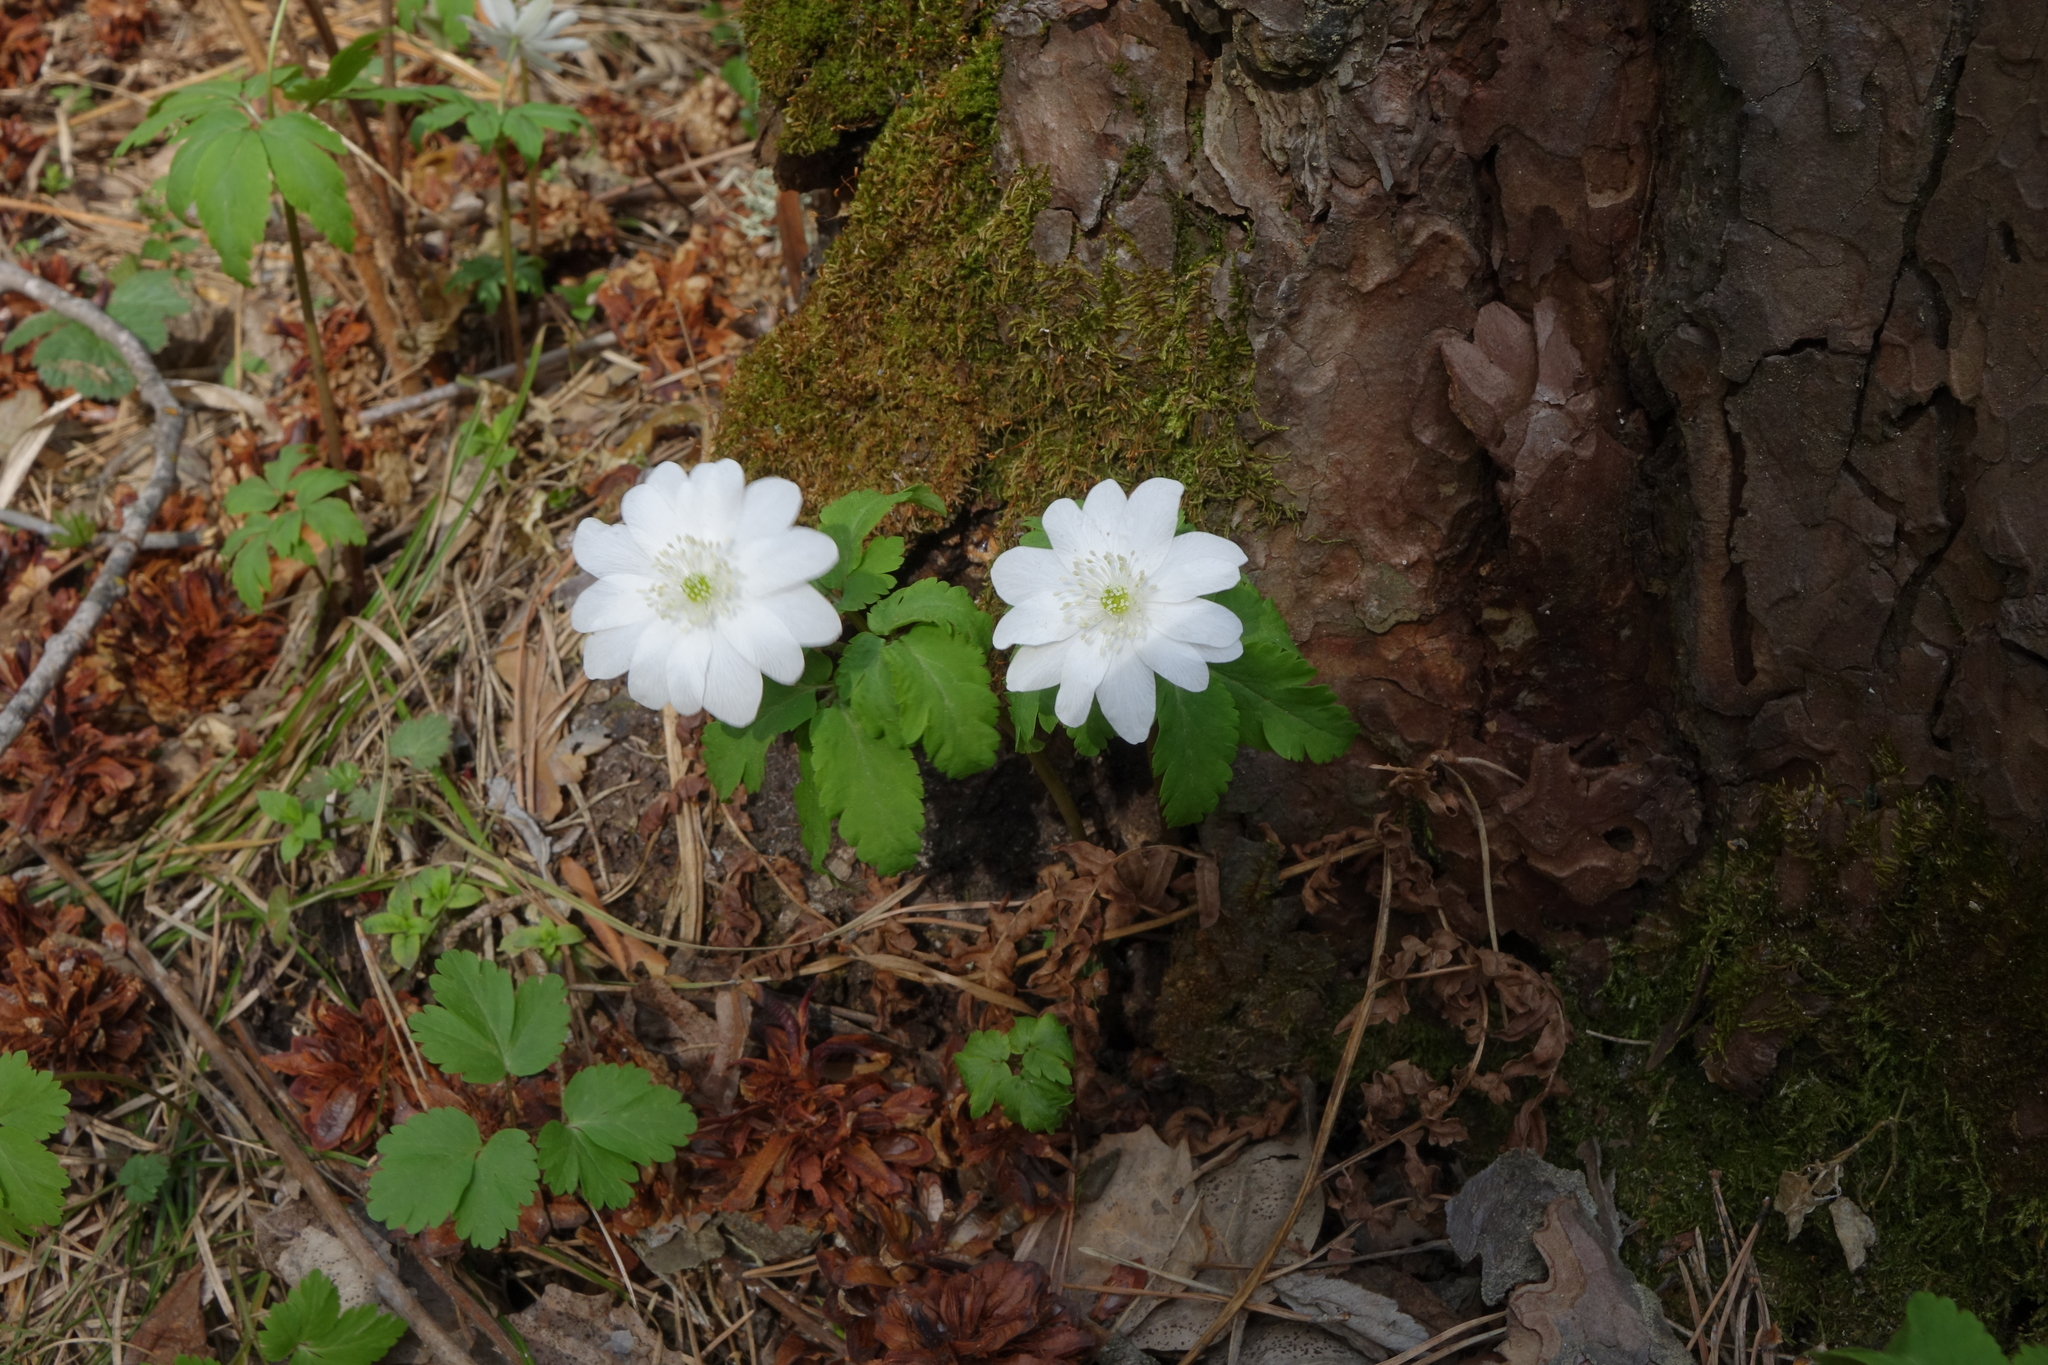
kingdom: Plantae
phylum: Tracheophyta
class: Magnoliopsida
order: Ranunculales
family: Ranunculaceae
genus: Anemone
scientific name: Anemone altaica
